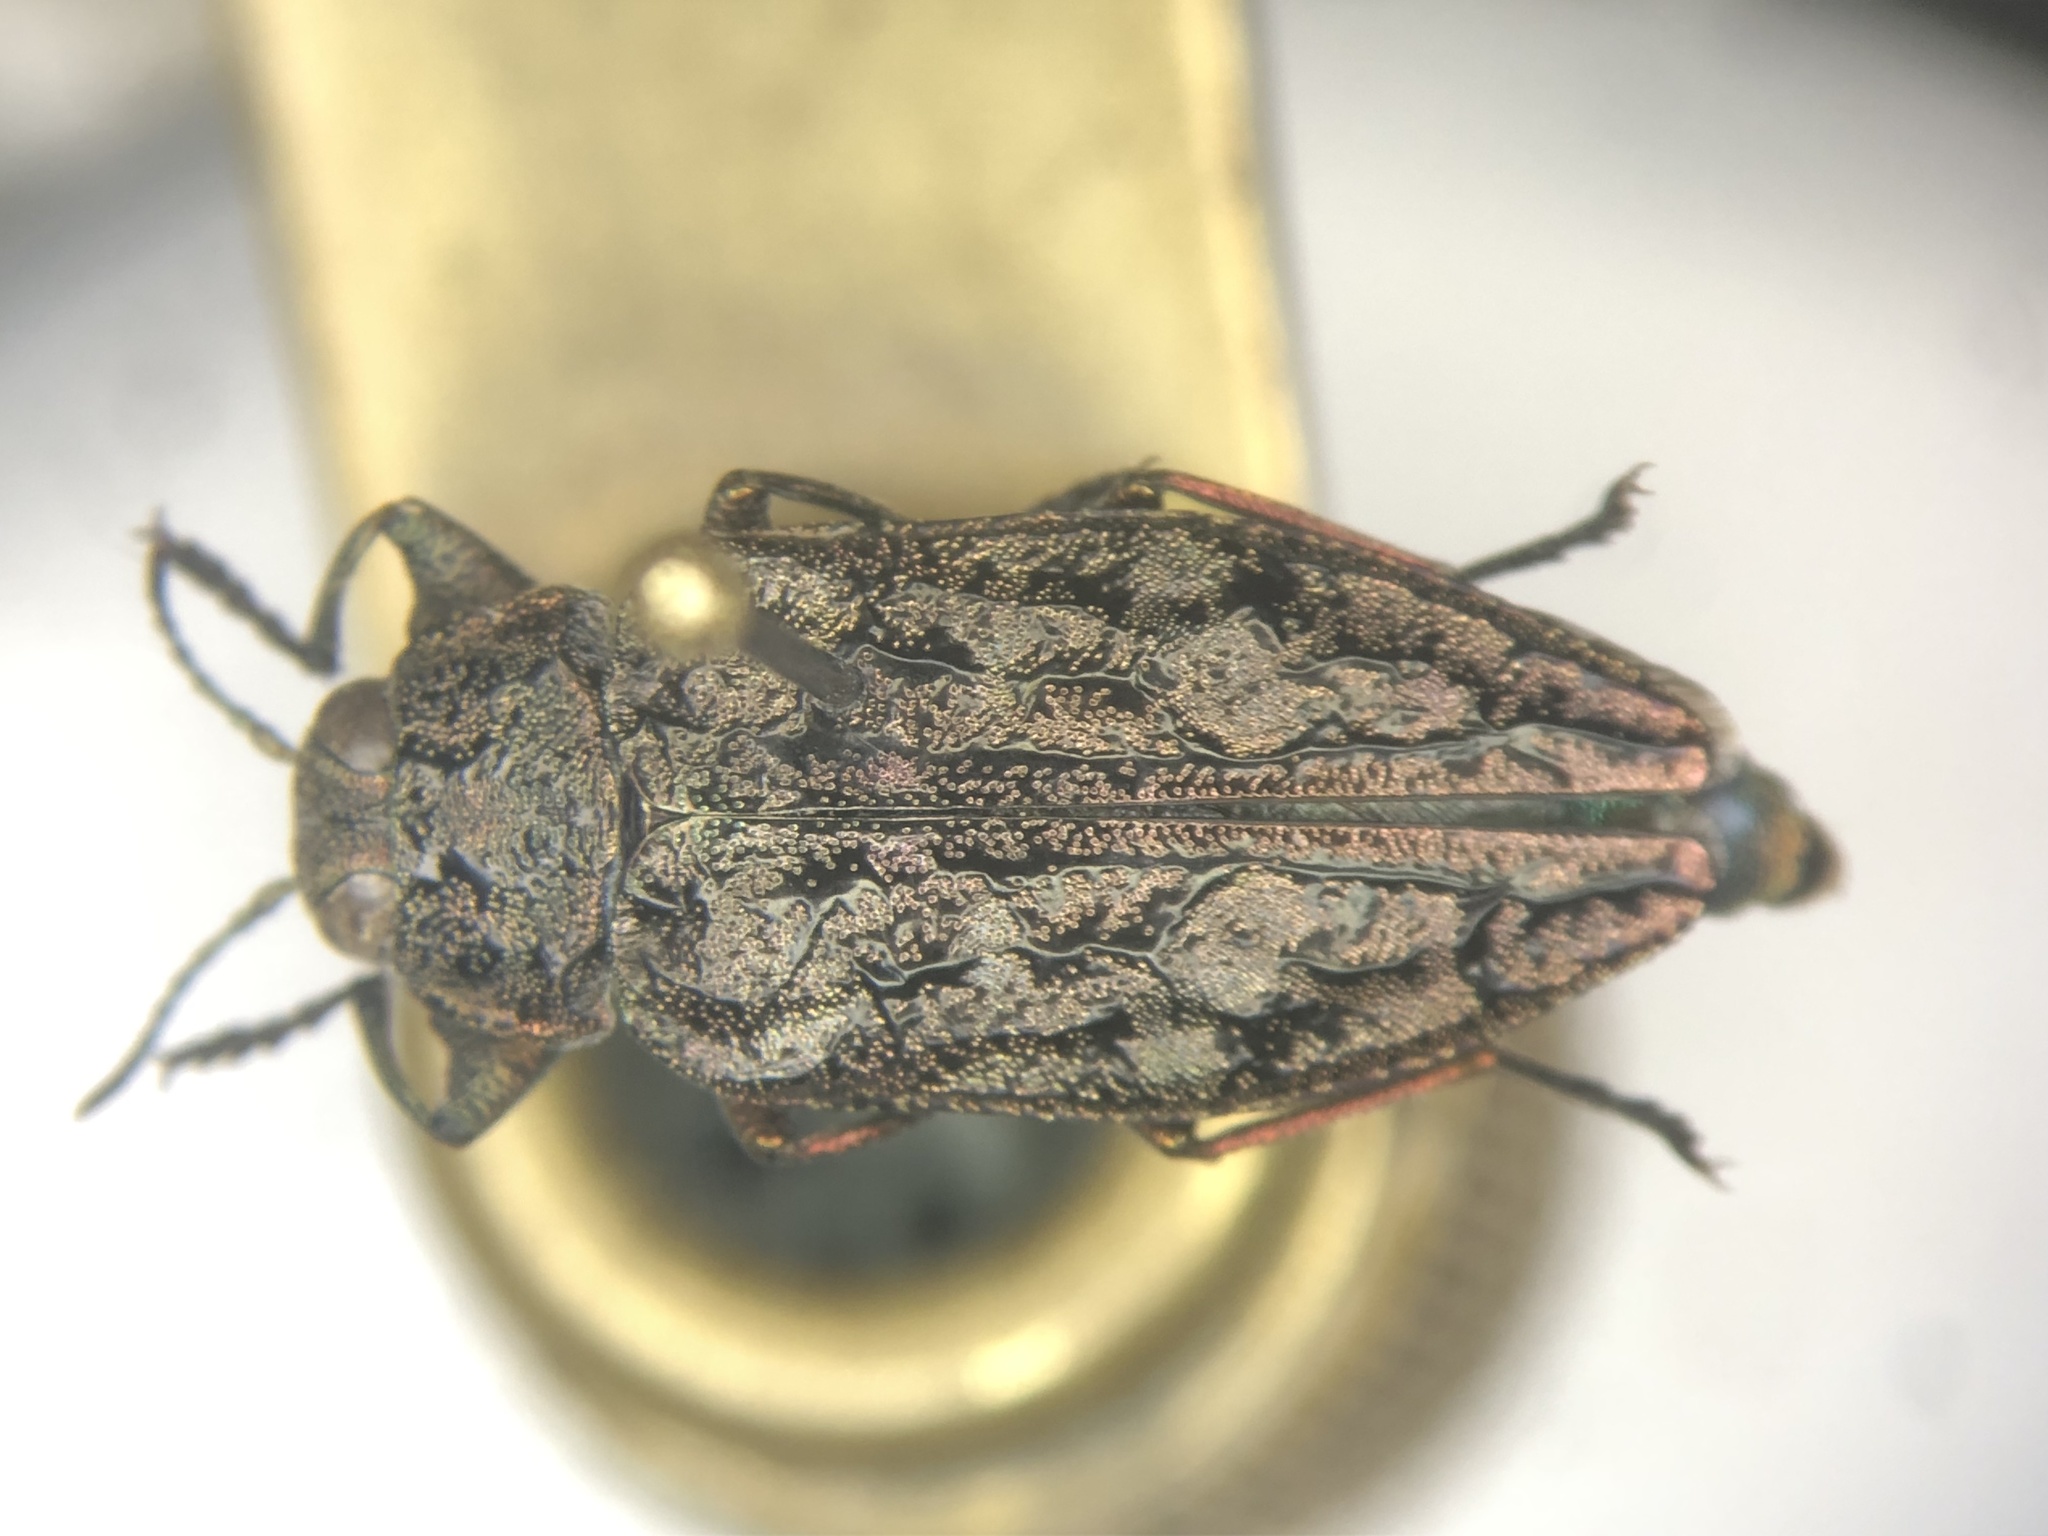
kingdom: Animalia
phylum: Arthropoda
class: Insecta
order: Coleoptera
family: Buprestidae
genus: Chrysobothris
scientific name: Chrysobothris verdigripennis
